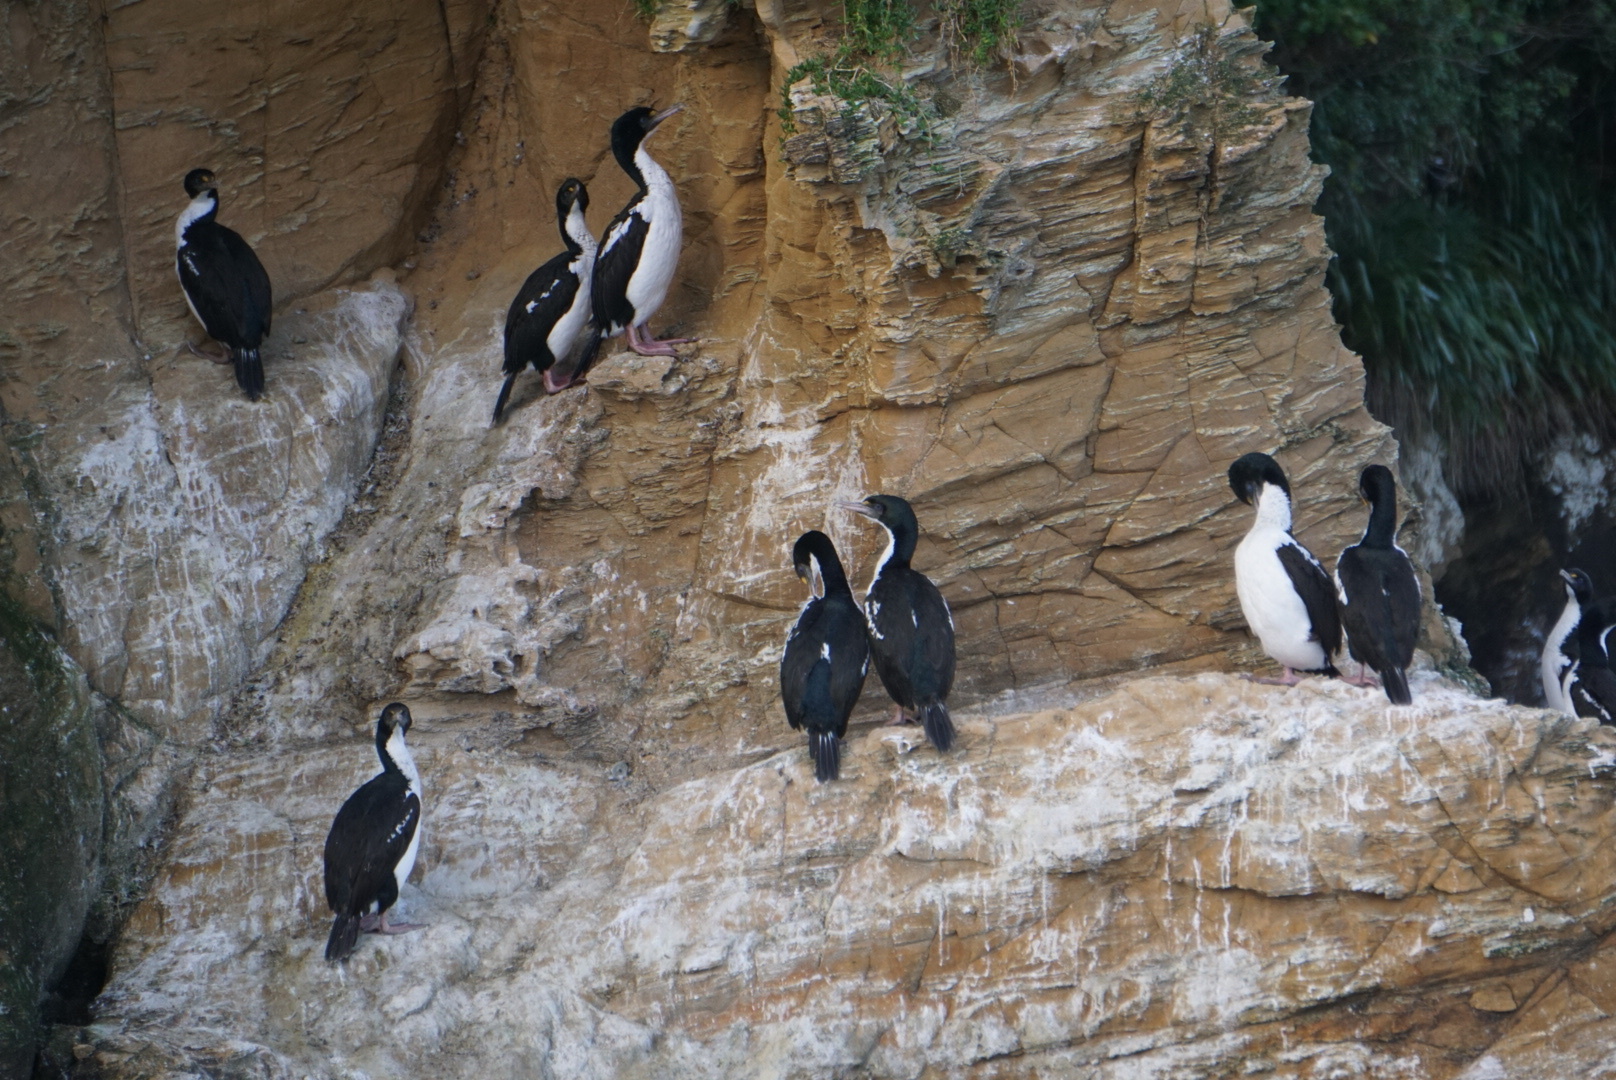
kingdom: Animalia
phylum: Chordata
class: Aves
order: Suliformes
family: Phalacrocoracidae
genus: Leucocarbo
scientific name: Leucocarbo carunculatus
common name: Rough-faced shag
